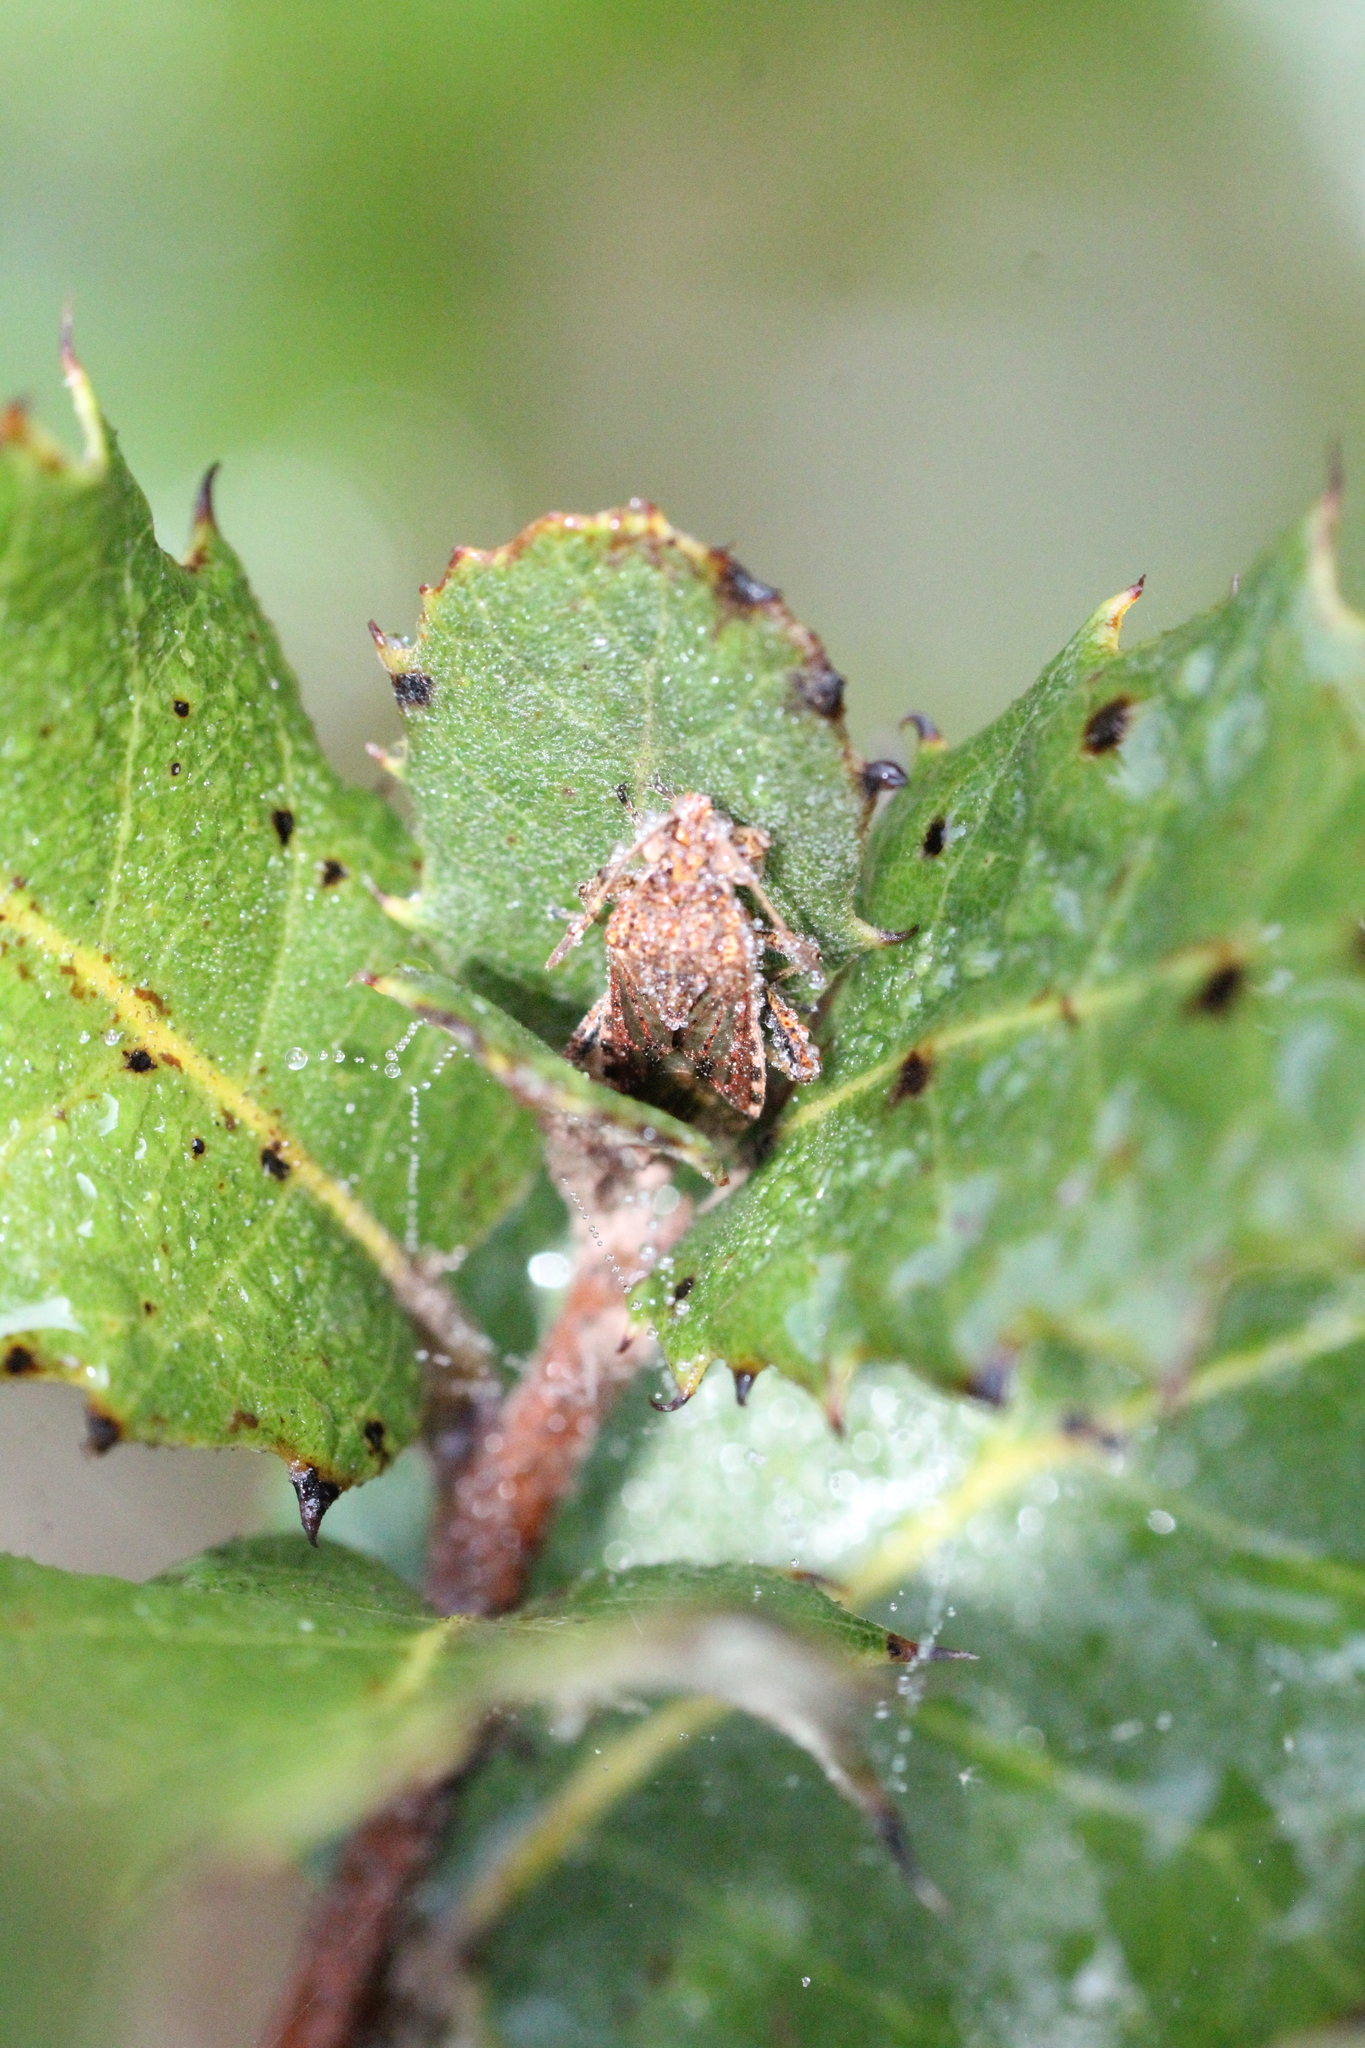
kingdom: Animalia
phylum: Arthropoda
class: Insecta
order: Hemiptera
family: Rhopalidae
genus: Stictopleurus
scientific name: Stictopleurus punctatonervosus
